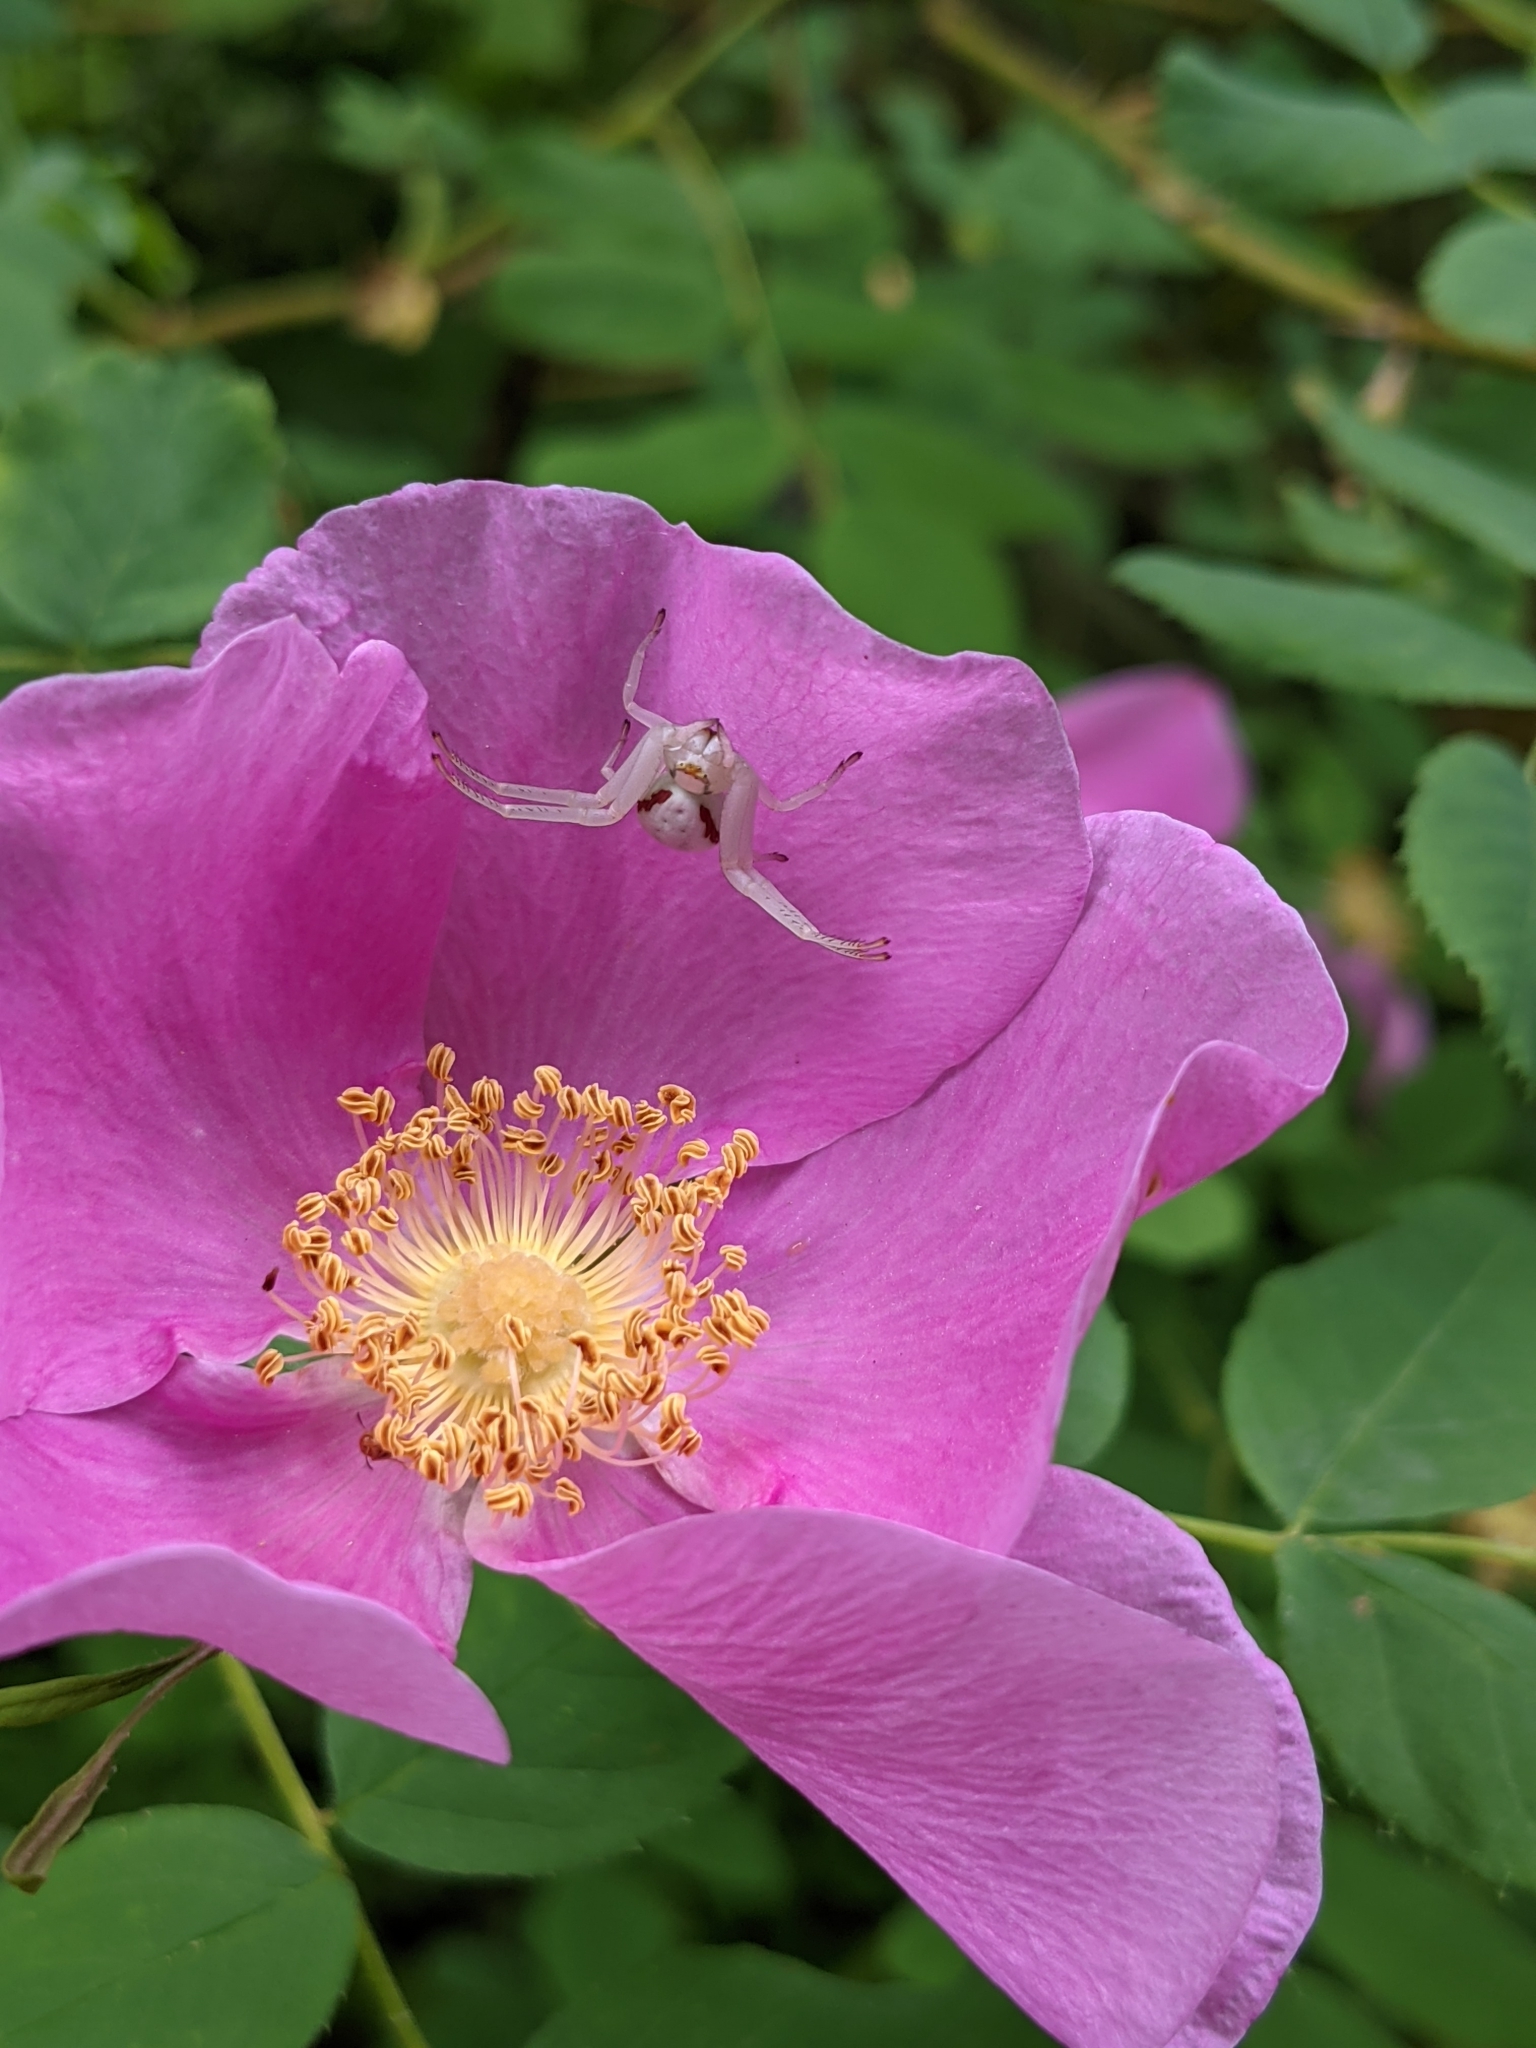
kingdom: Animalia
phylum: Arthropoda
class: Arachnida
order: Araneae
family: Thomisidae
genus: Misumena
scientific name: Misumena vatia
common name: Goldenrod crab spider
